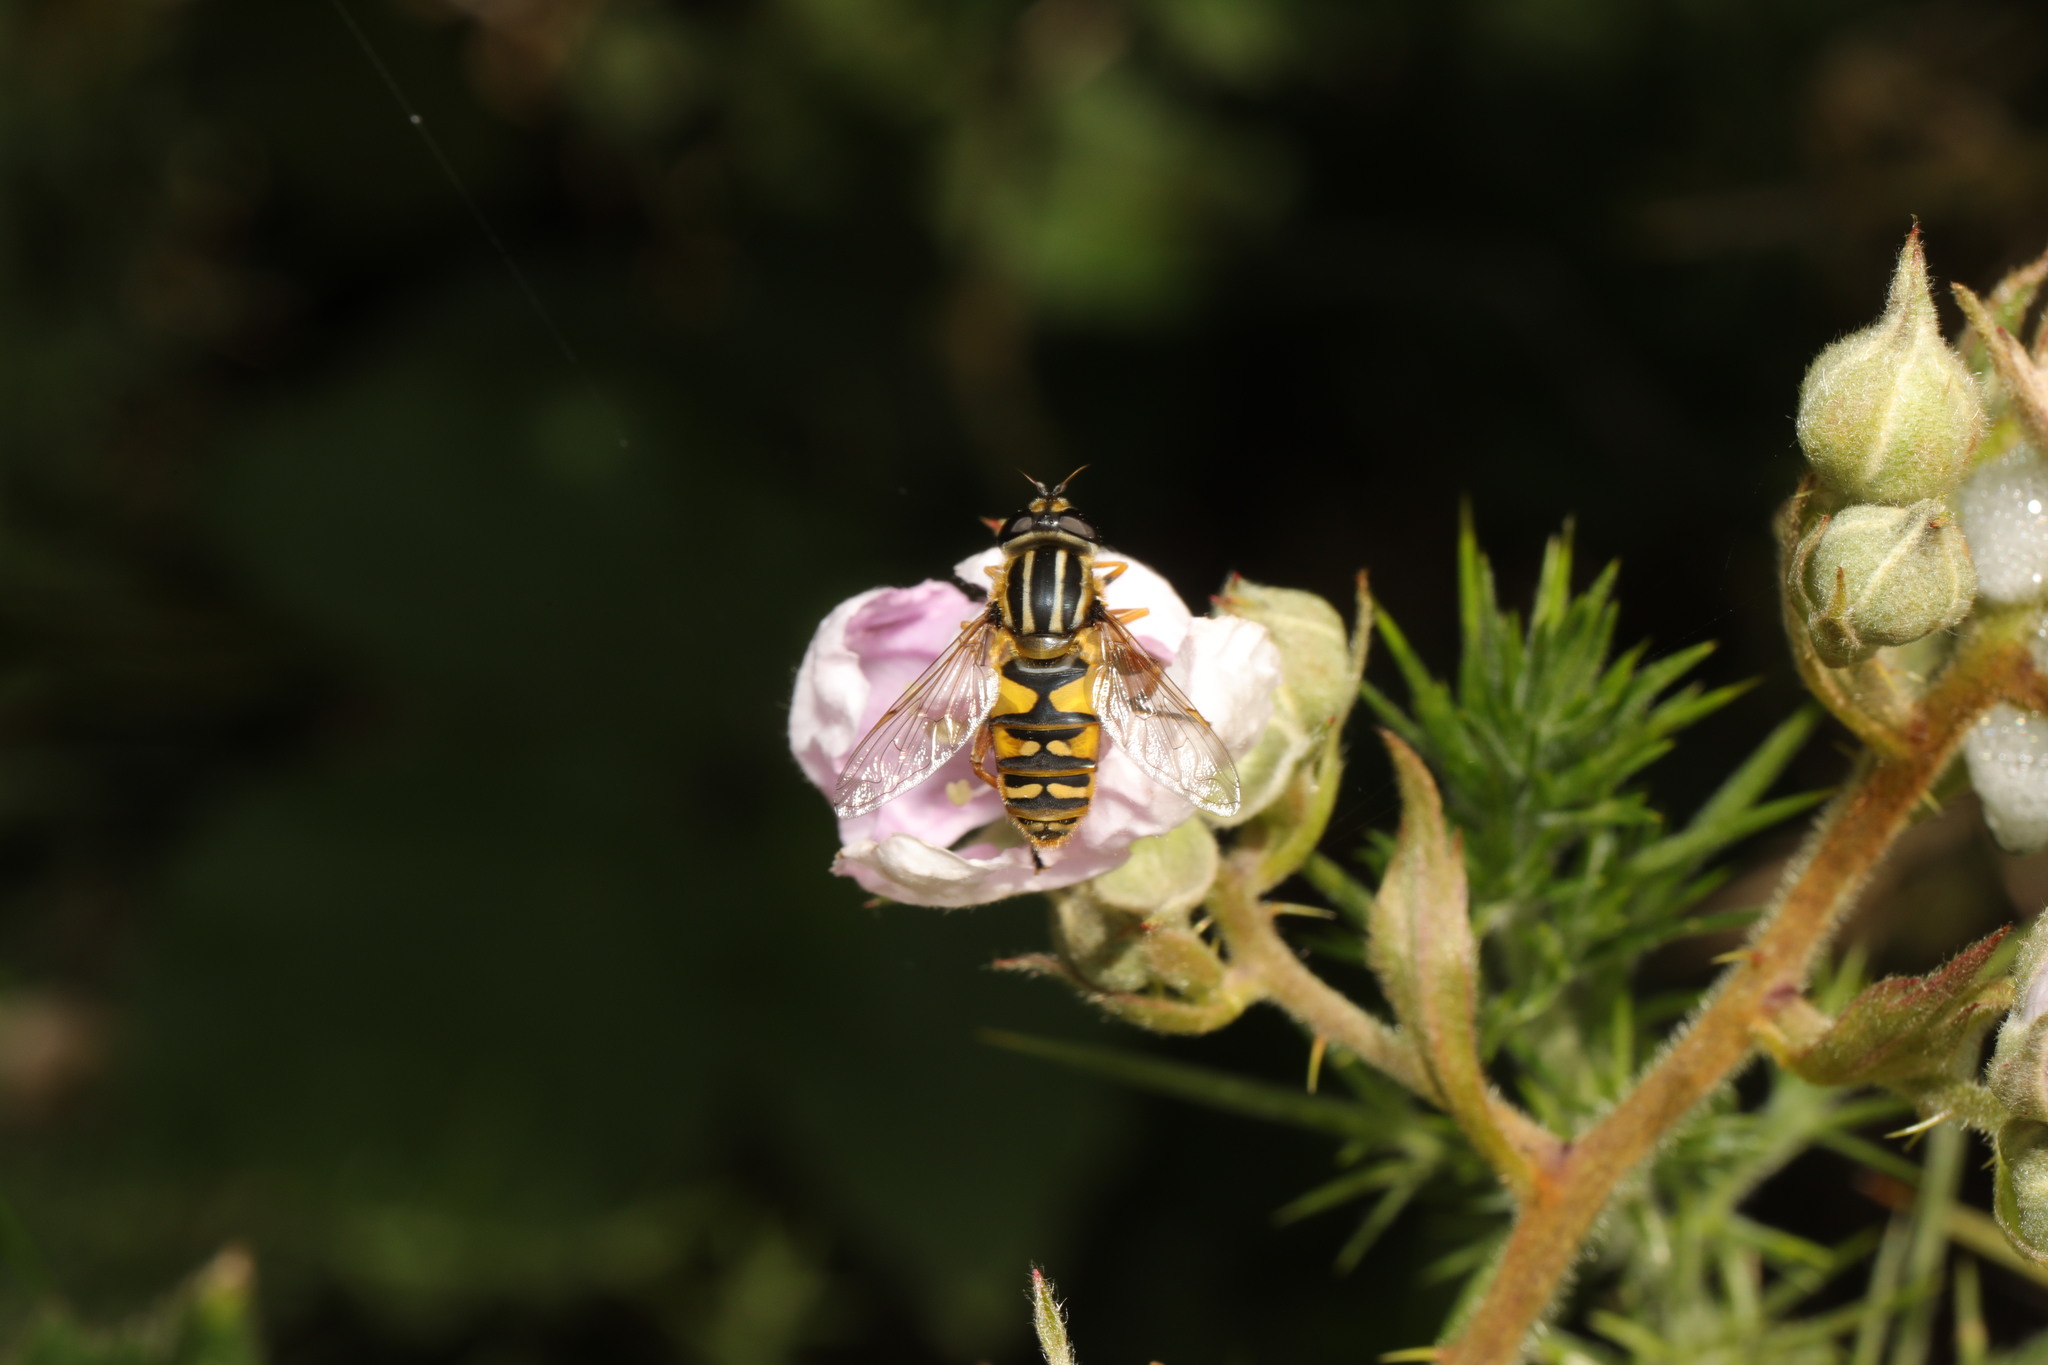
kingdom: Animalia
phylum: Arthropoda
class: Insecta
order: Diptera
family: Syrphidae
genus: Helophilus
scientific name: Helophilus pendulus
